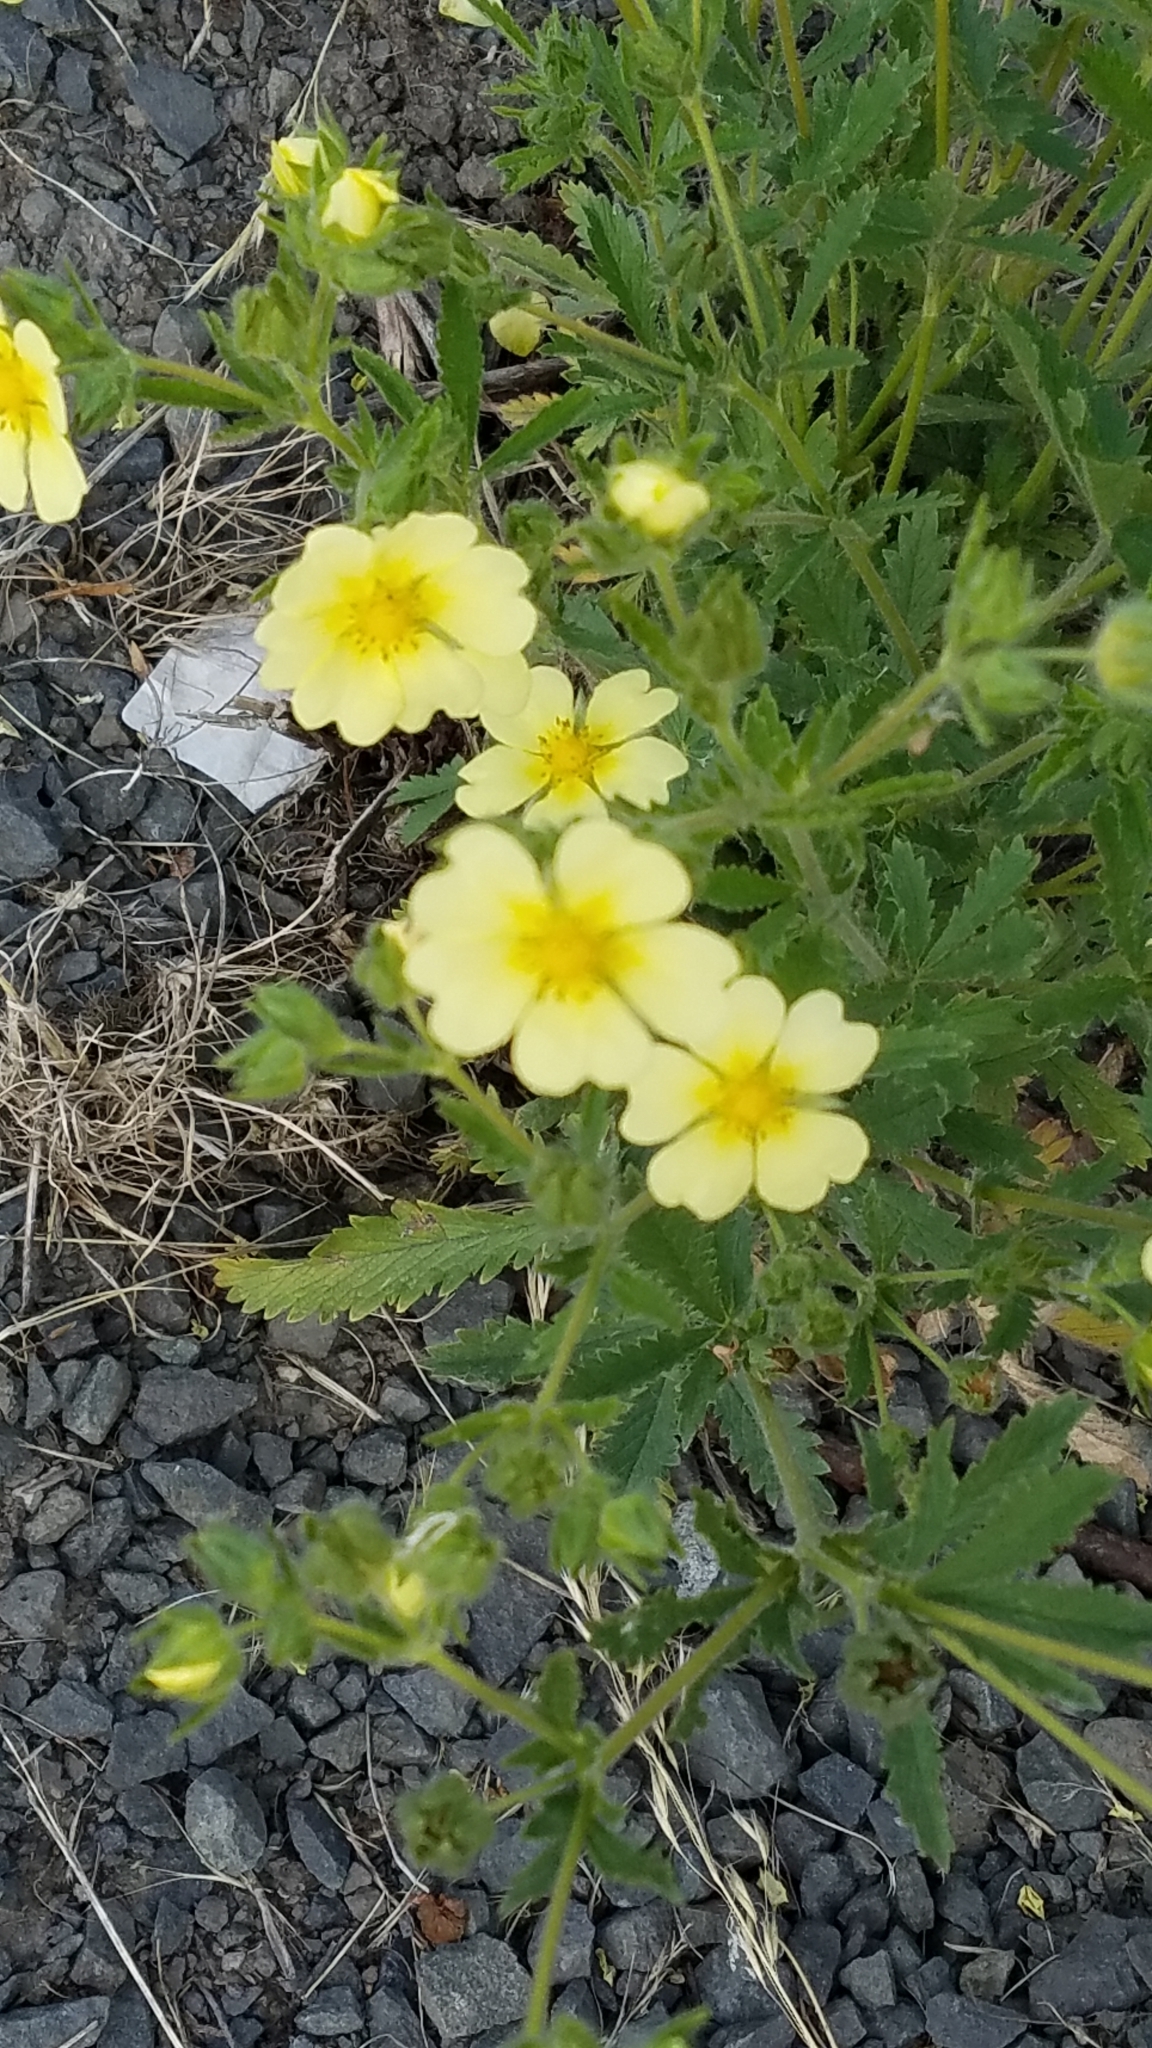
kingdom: Plantae
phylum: Tracheophyta
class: Magnoliopsida
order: Rosales
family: Rosaceae
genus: Potentilla
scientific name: Potentilla recta
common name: Sulphur cinquefoil
